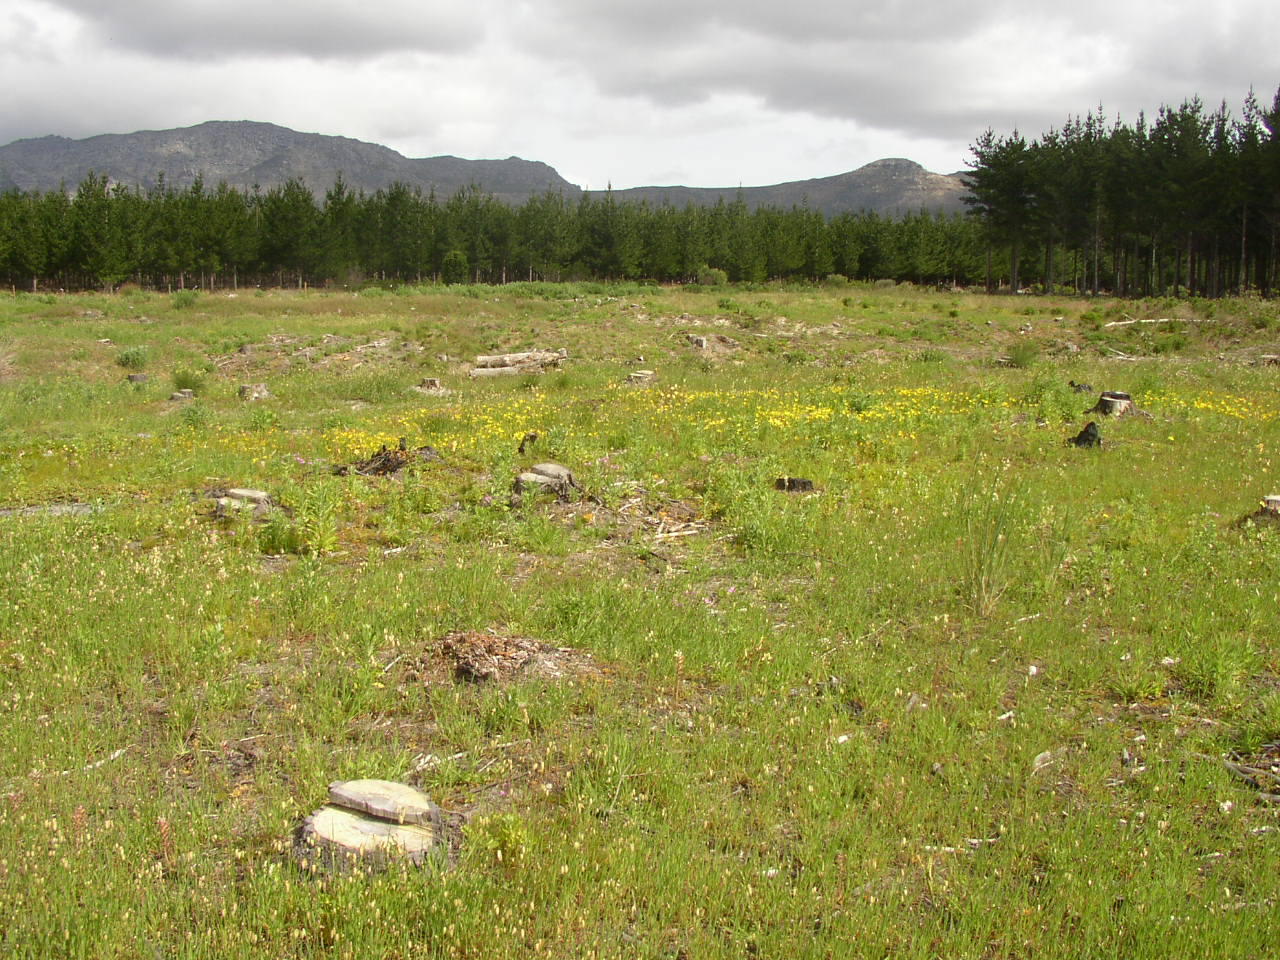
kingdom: Plantae
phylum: Tracheophyta
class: Liliopsida
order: Poales
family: Poaceae
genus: Briza
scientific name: Briza maxima
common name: Big quakinggrass
